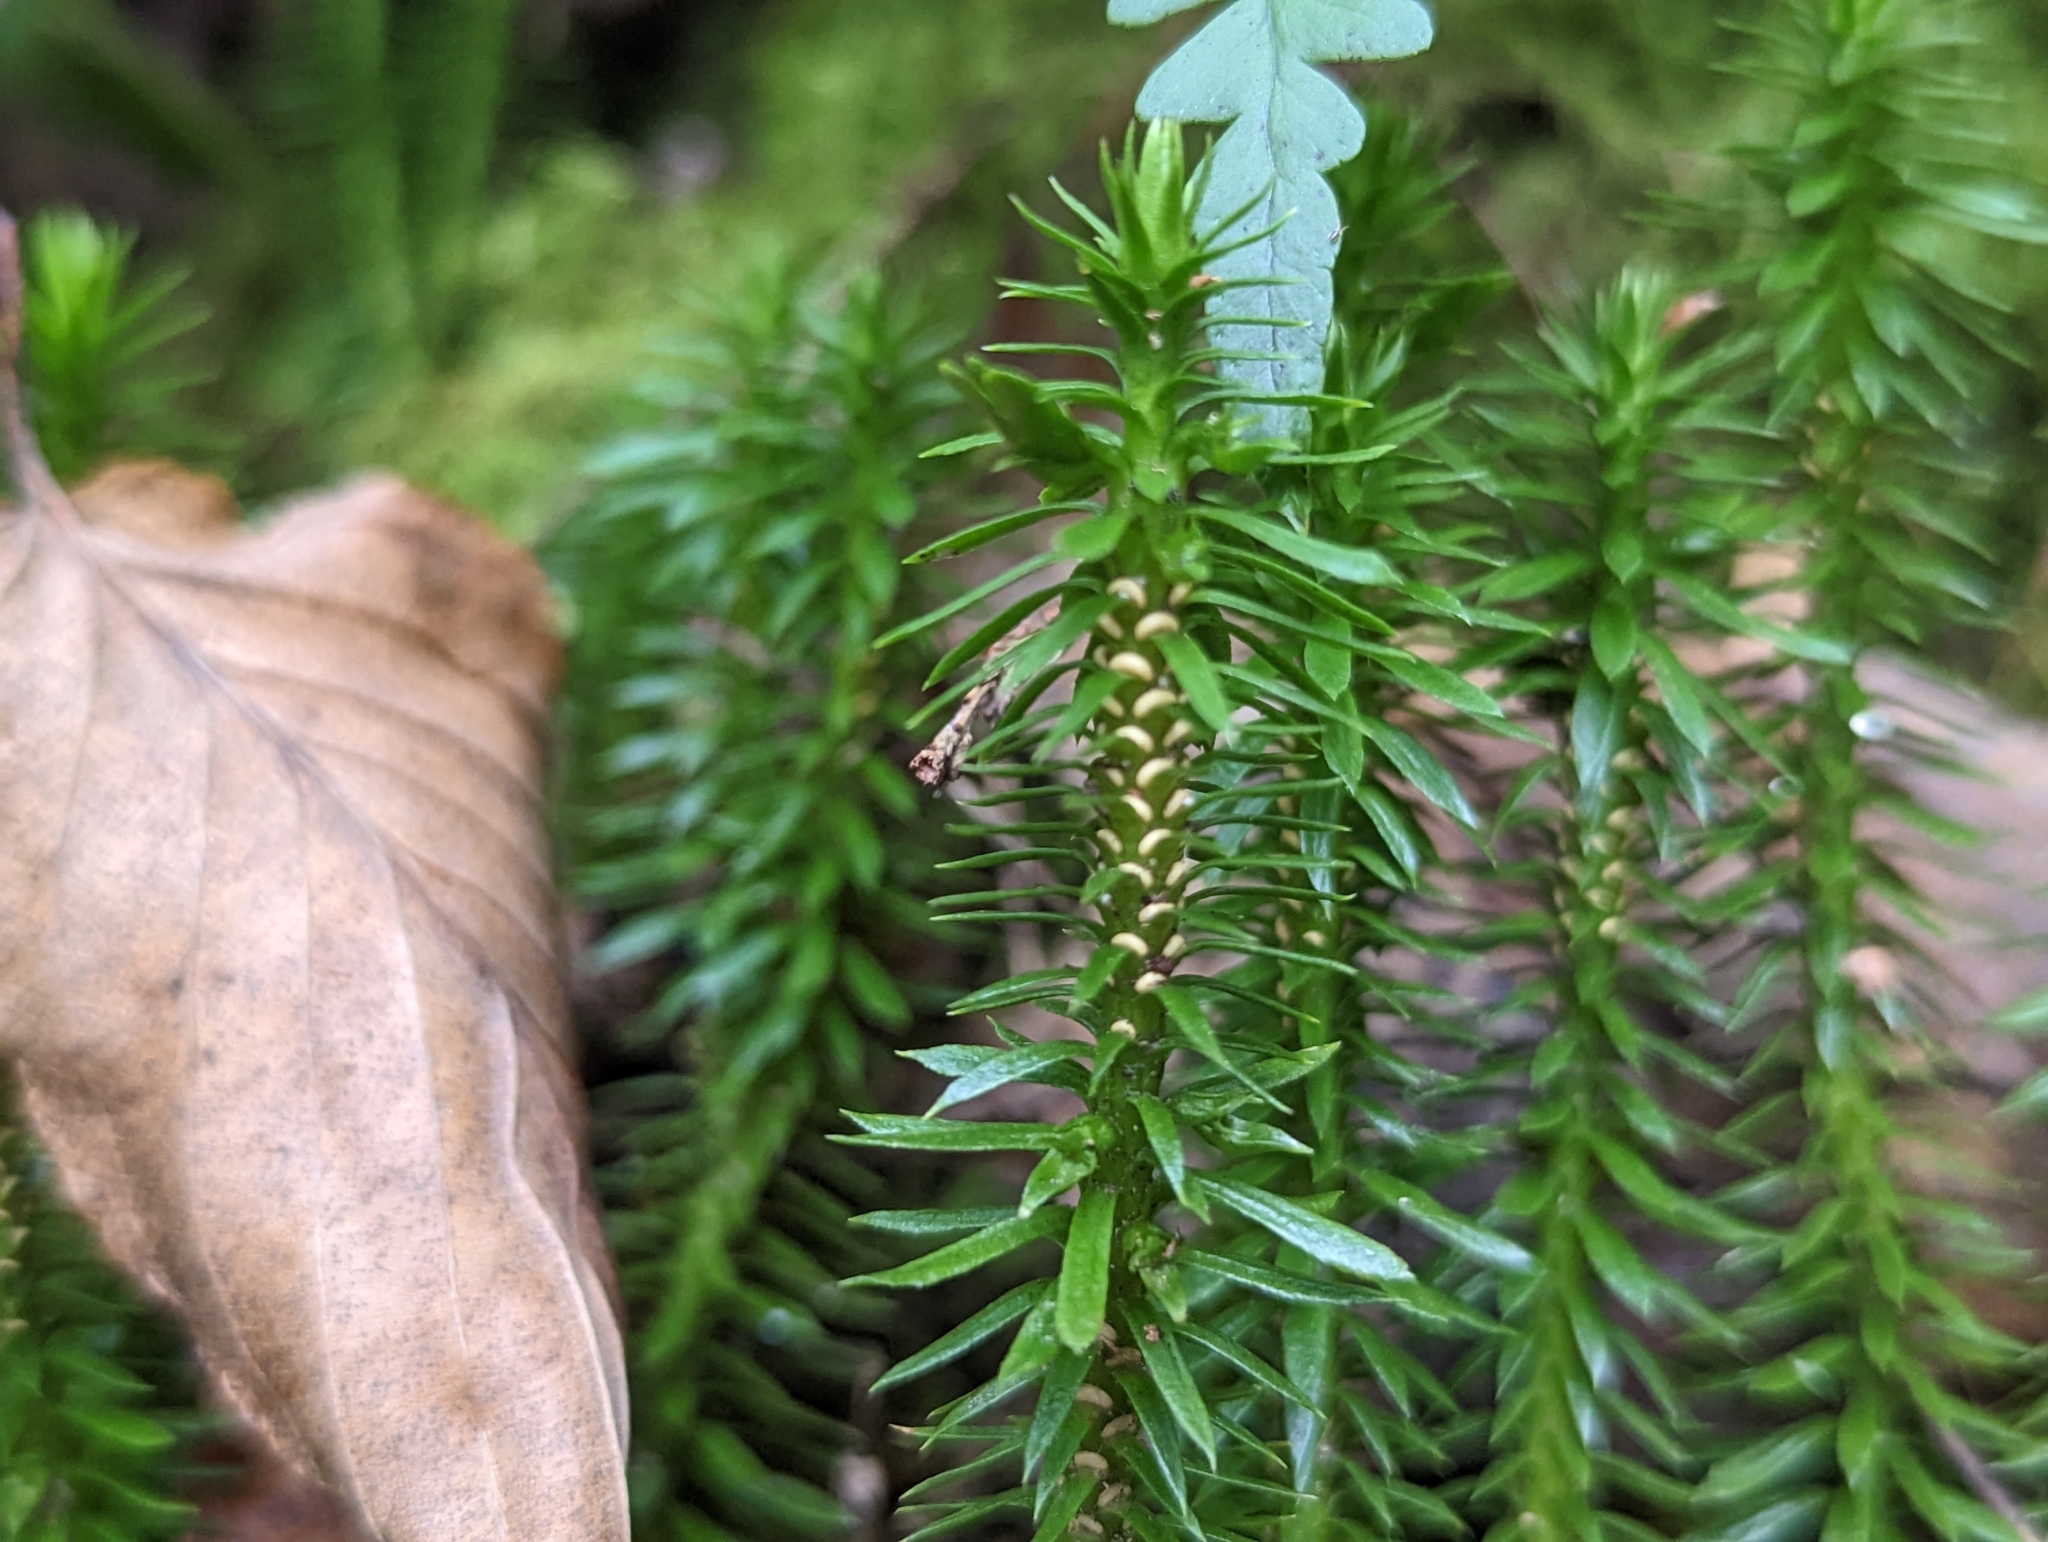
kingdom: Plantae
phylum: Tracheophyta
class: Lycopodiopsida
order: Lycopodiales
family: Lycopodiaceae
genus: Huperzia
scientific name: Huperzia lucidula
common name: Shining clubmoss
